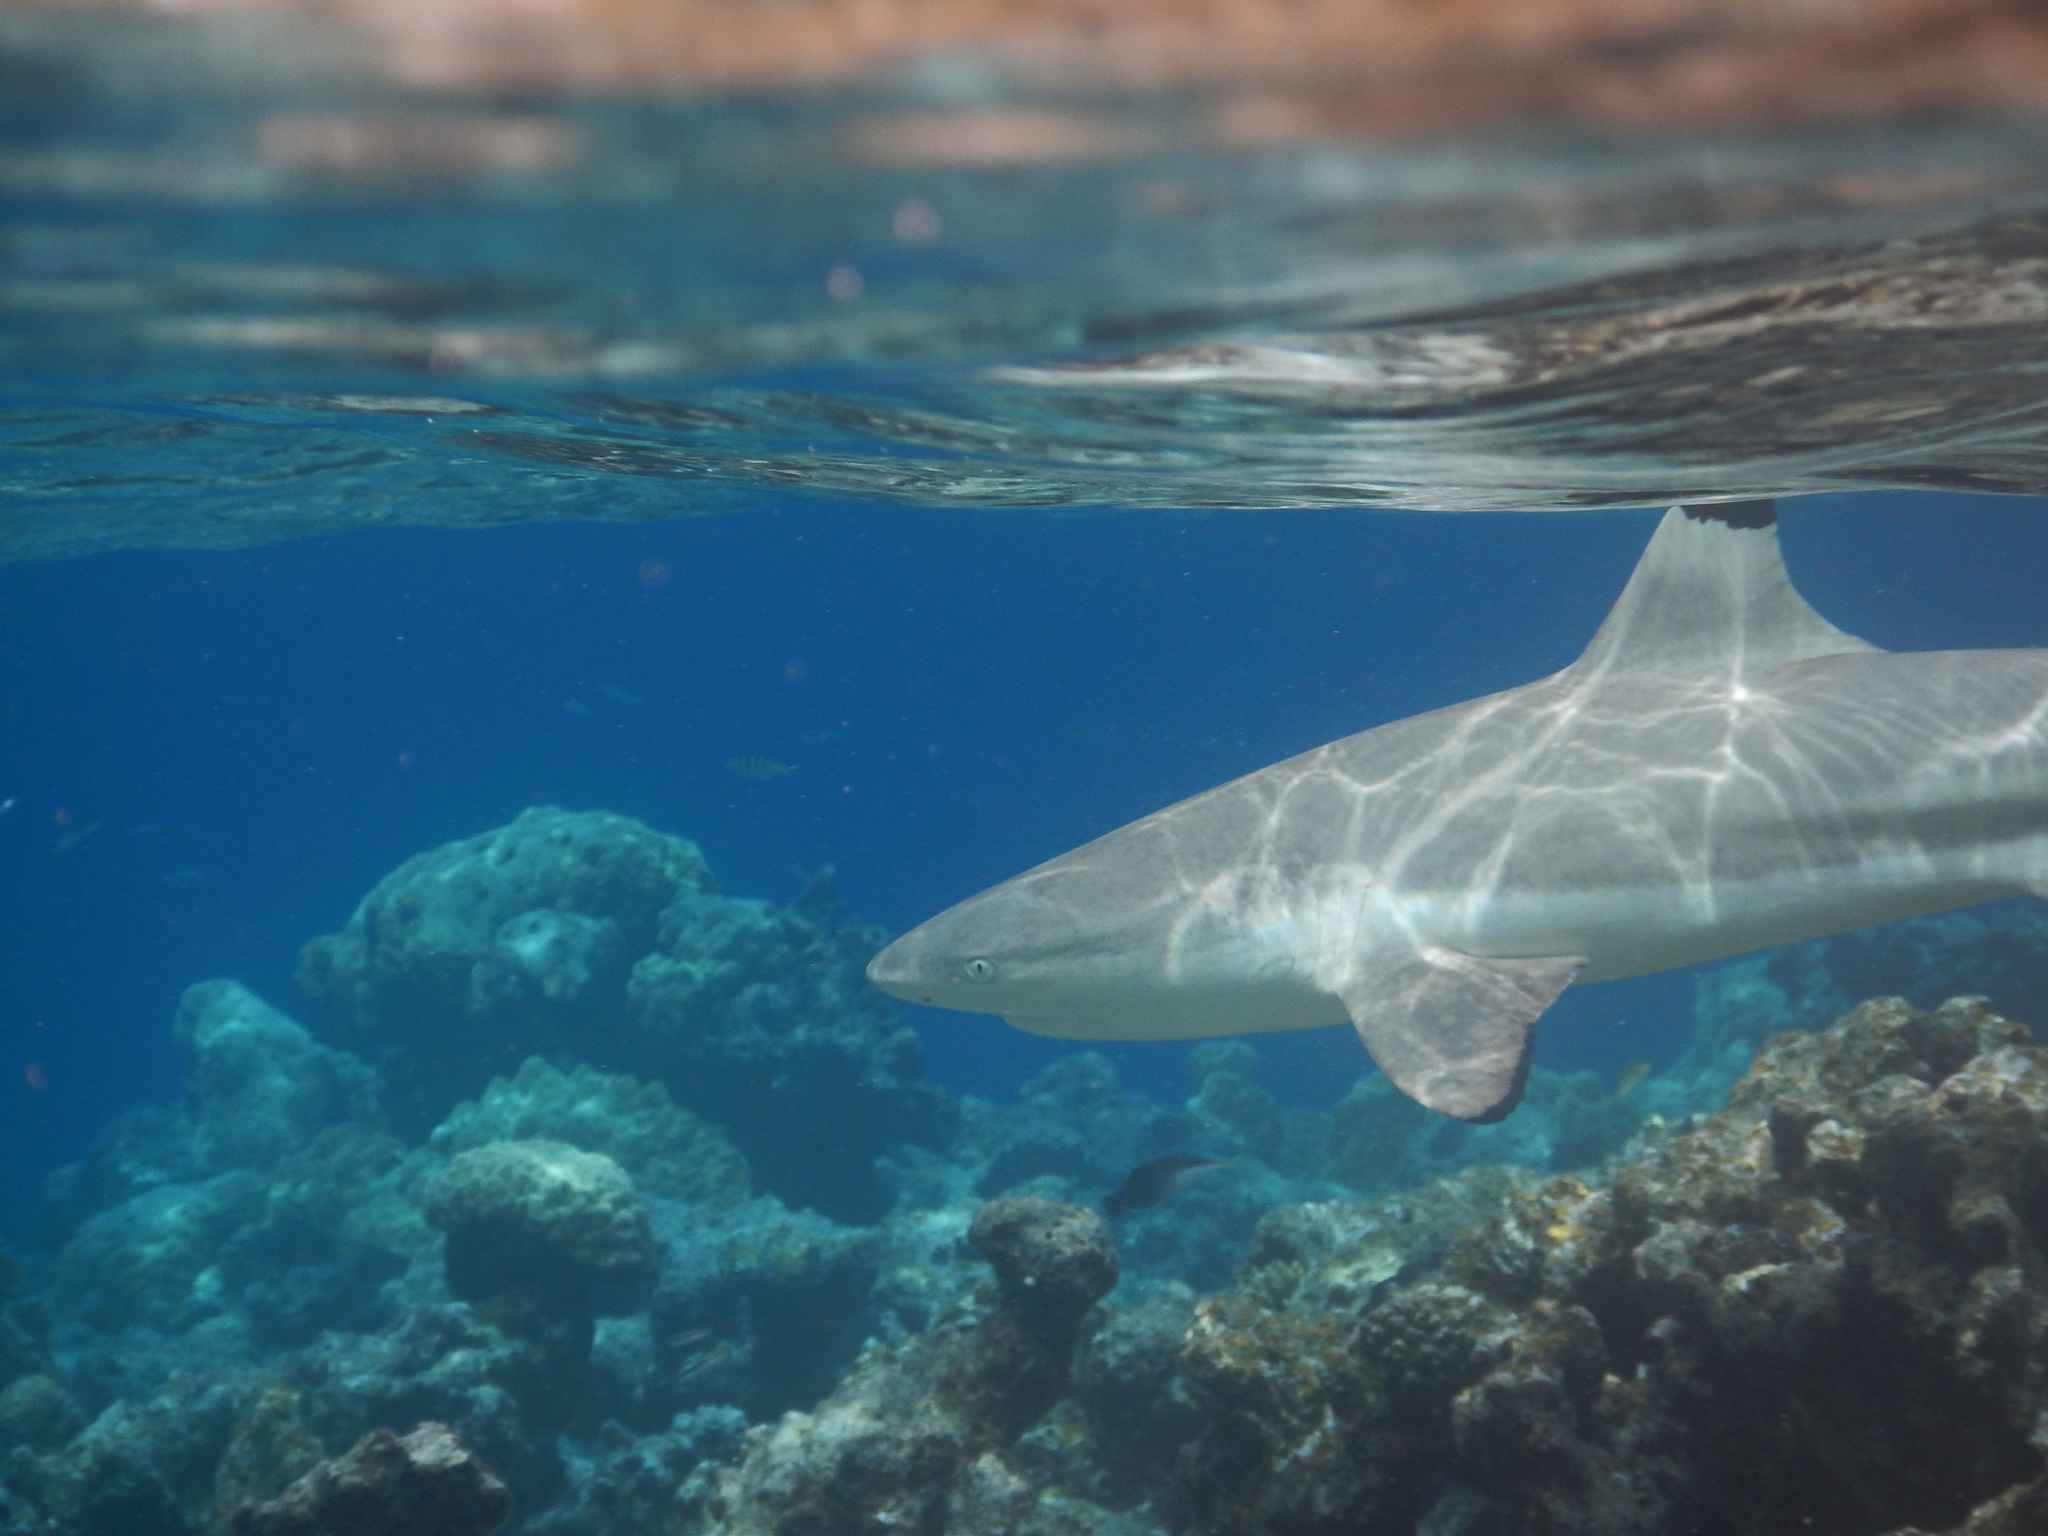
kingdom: Animalia
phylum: Chordata
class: Elasmobranchii
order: Carcharhiniformes
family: Carcharhinidae
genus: Carcharhinus
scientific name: Carcharhinus melanopterus
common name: Blacktip reef shark
